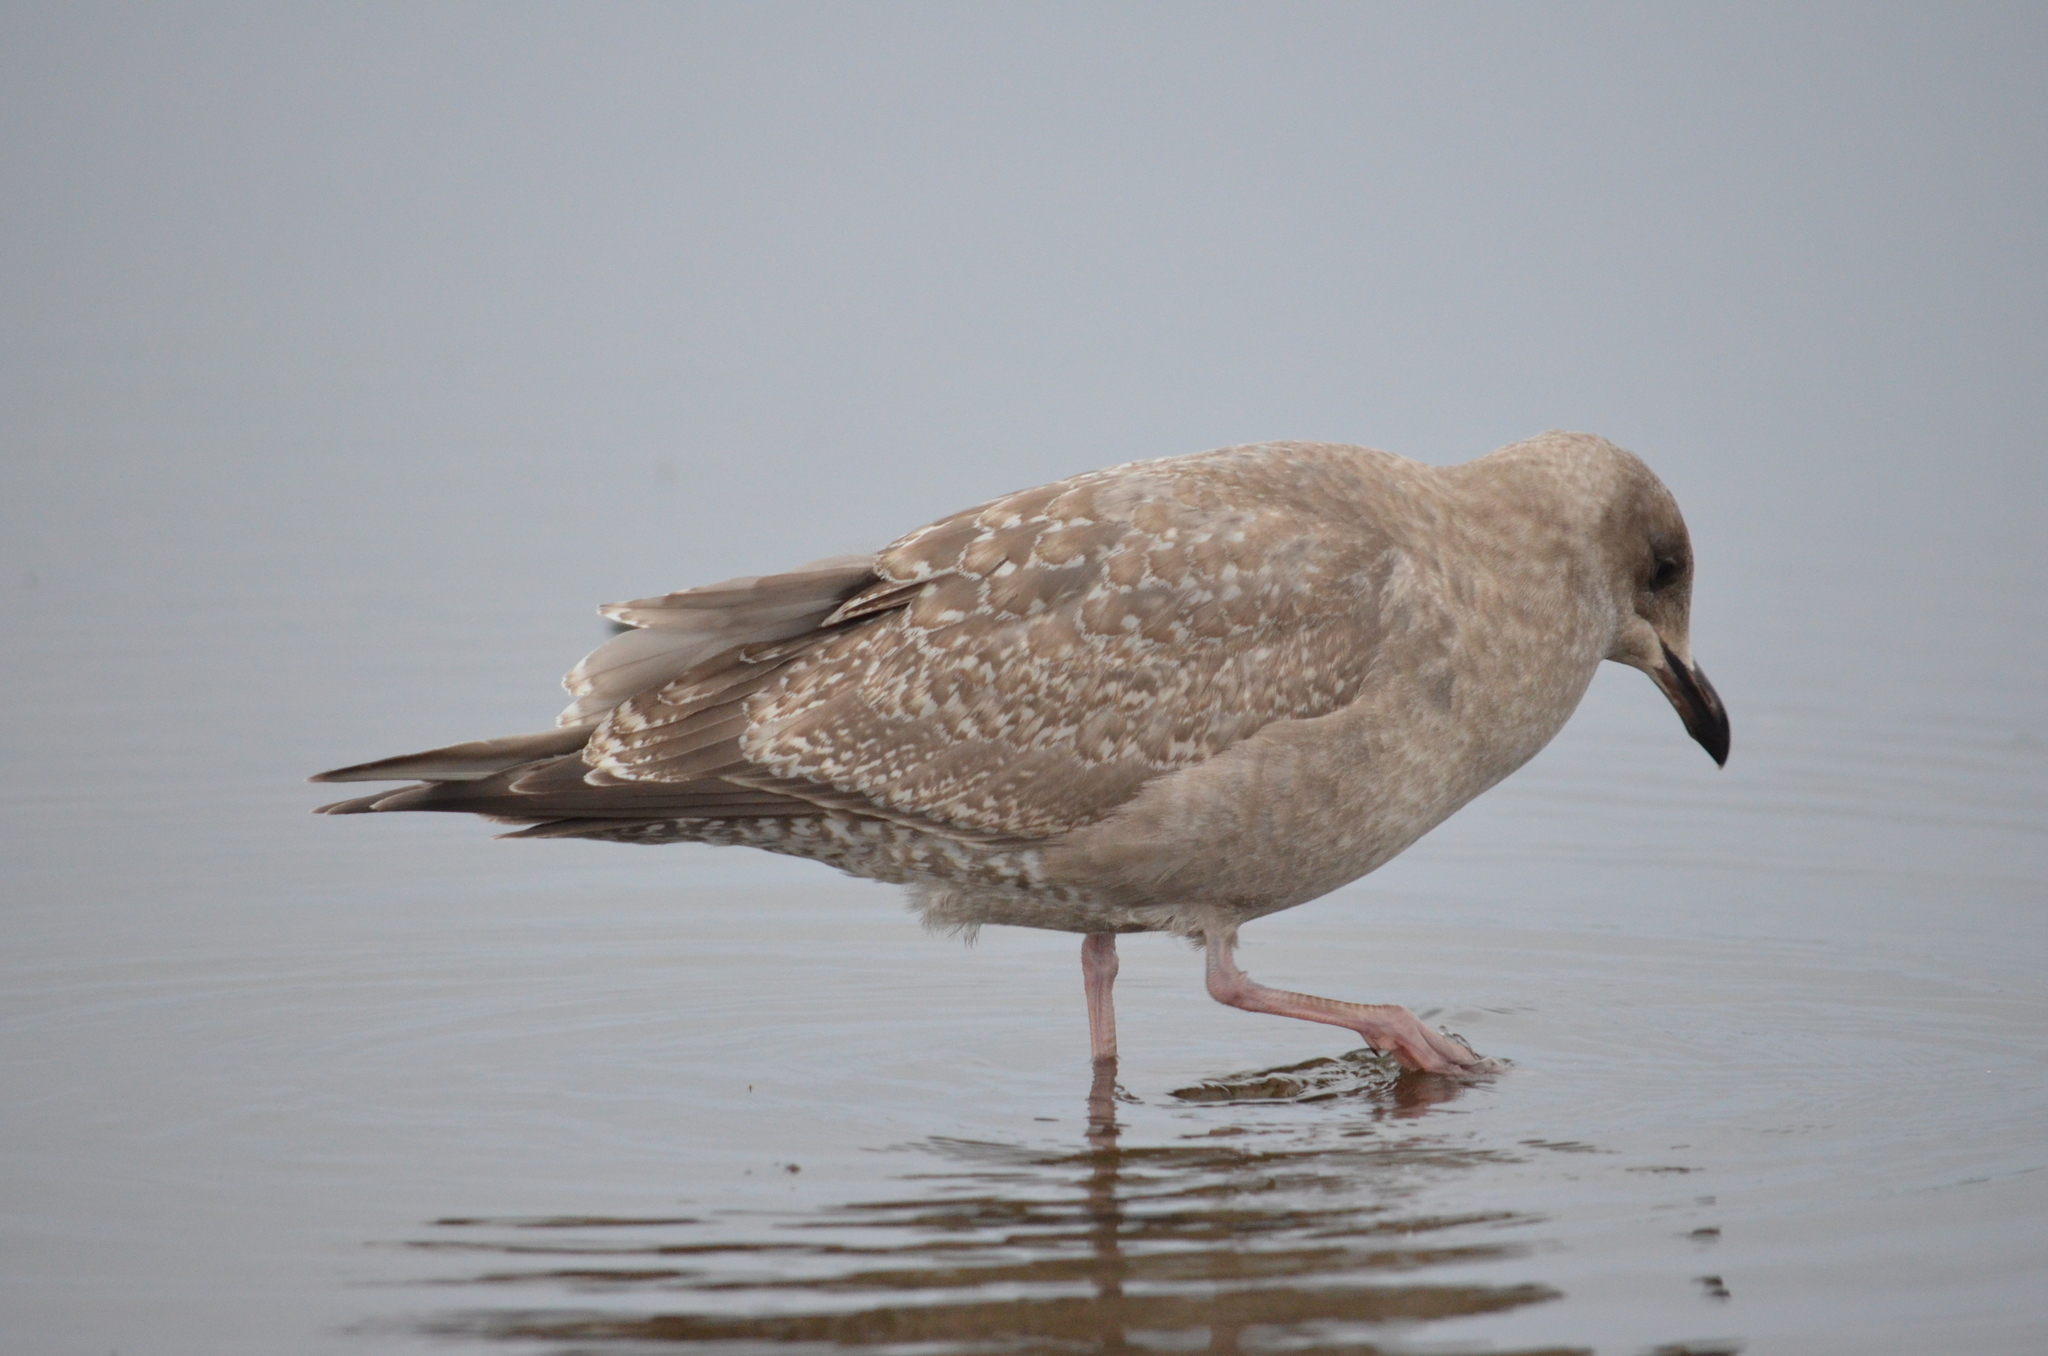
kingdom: Animalia
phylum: Chordata
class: Aves
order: Charadriiformes
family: Laridae
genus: Larus
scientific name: Larus
